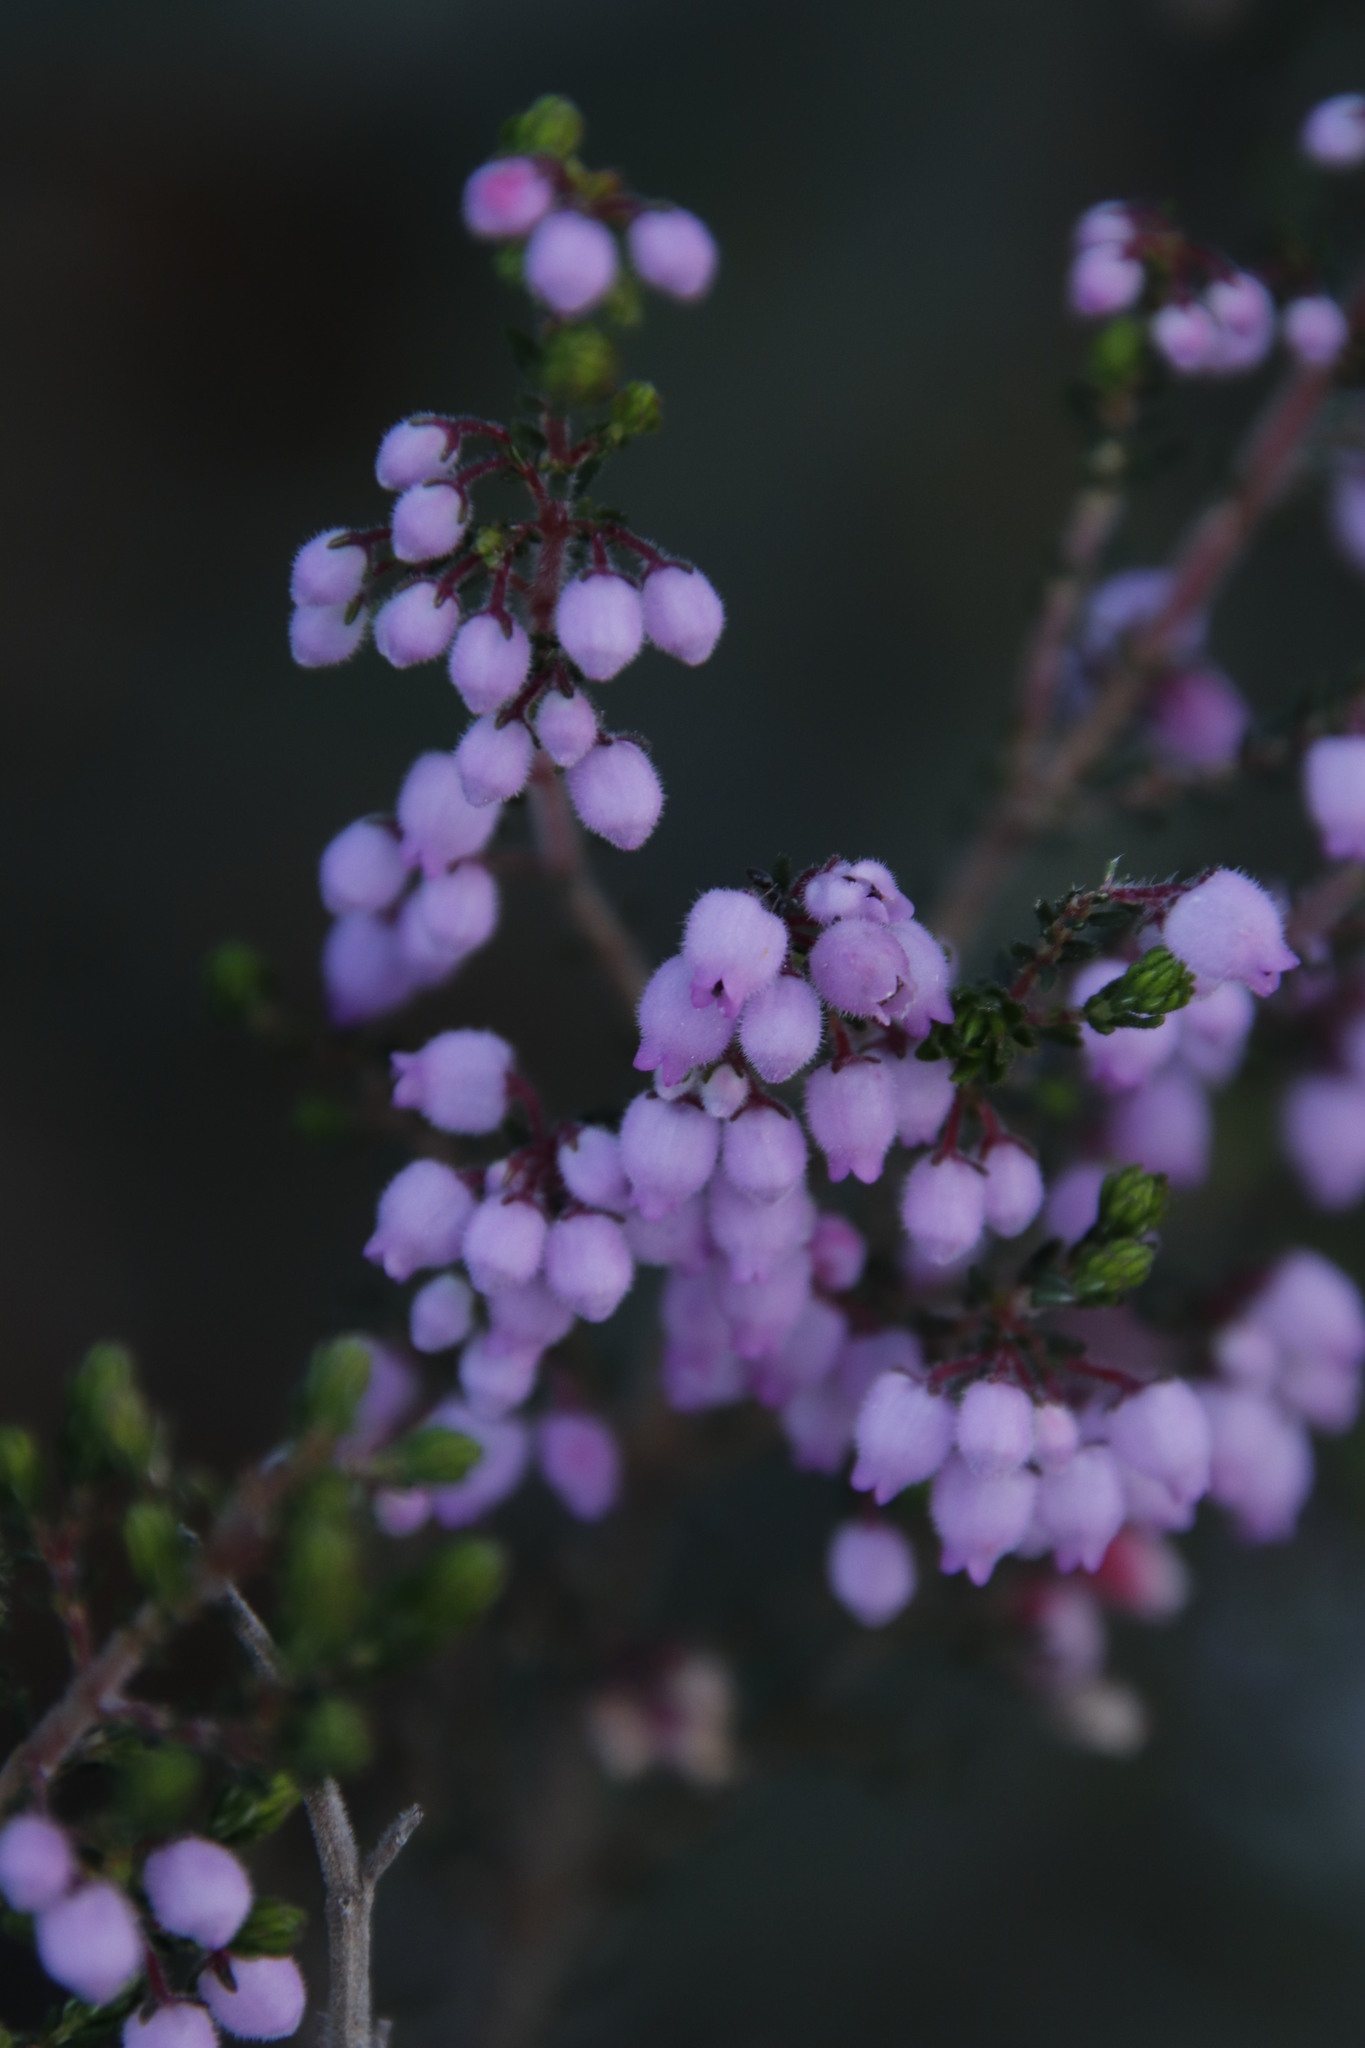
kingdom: Plantae
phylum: Tracheophyta
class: Magnoliopsida
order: Ericales
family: Ericaceae
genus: Erica
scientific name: Erica hirtiflora
